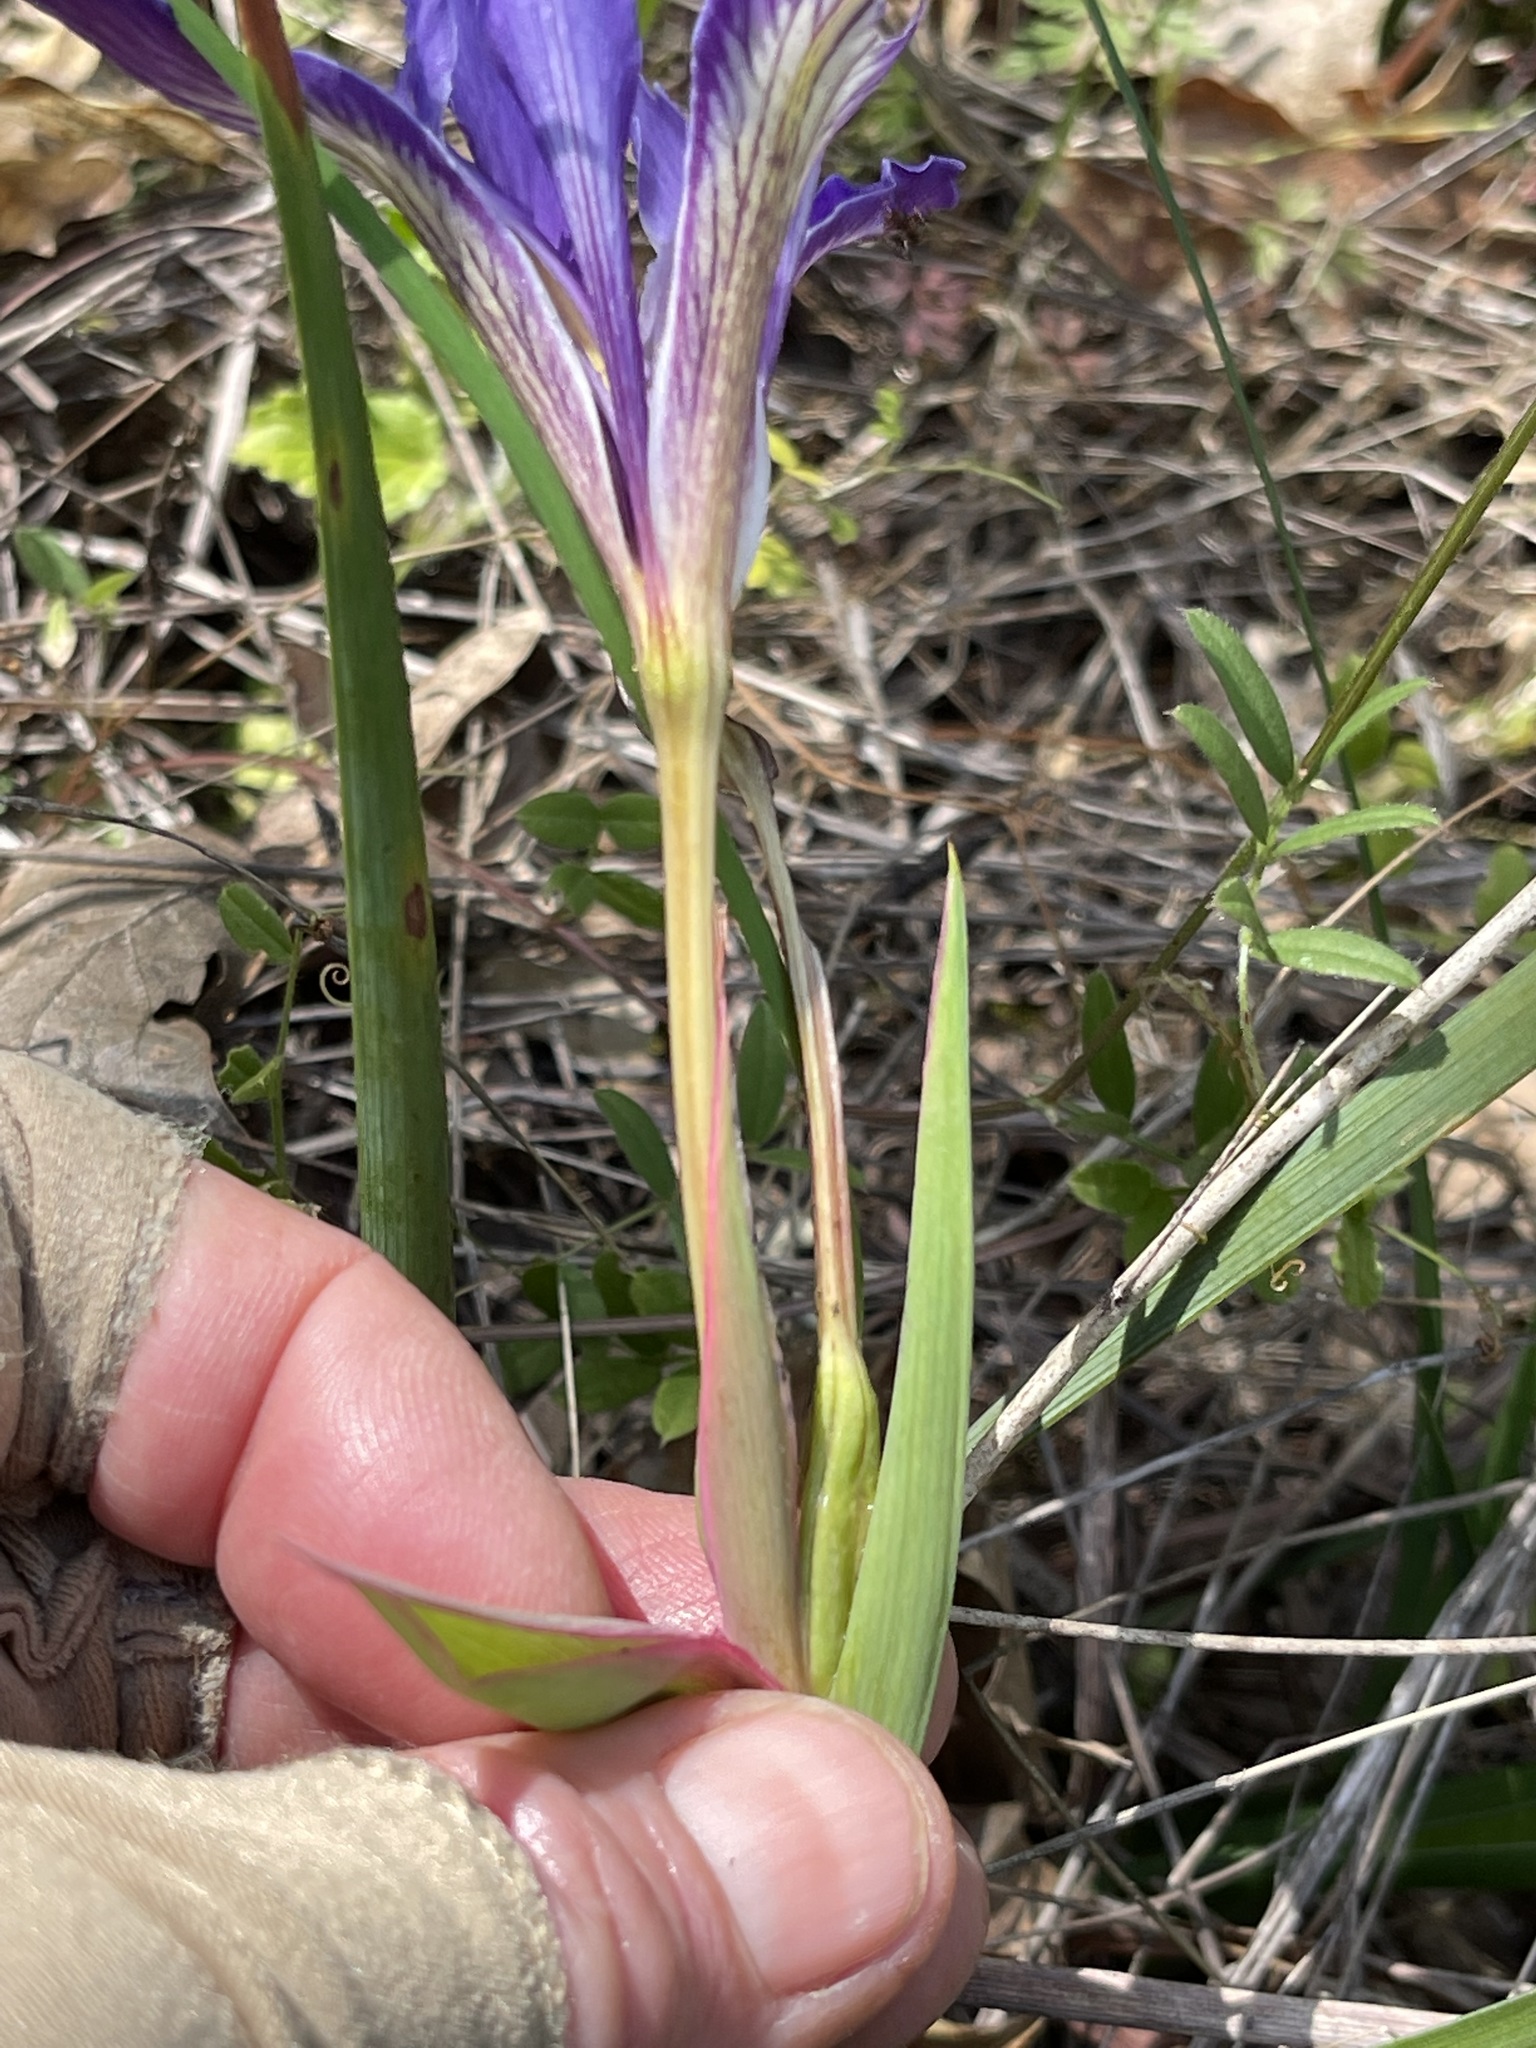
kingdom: Plantae
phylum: Tracheophyta
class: Liliopsida
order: Asparagales
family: Iridaceae
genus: Iris
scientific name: Iris macrosiphon
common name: Ground iris
